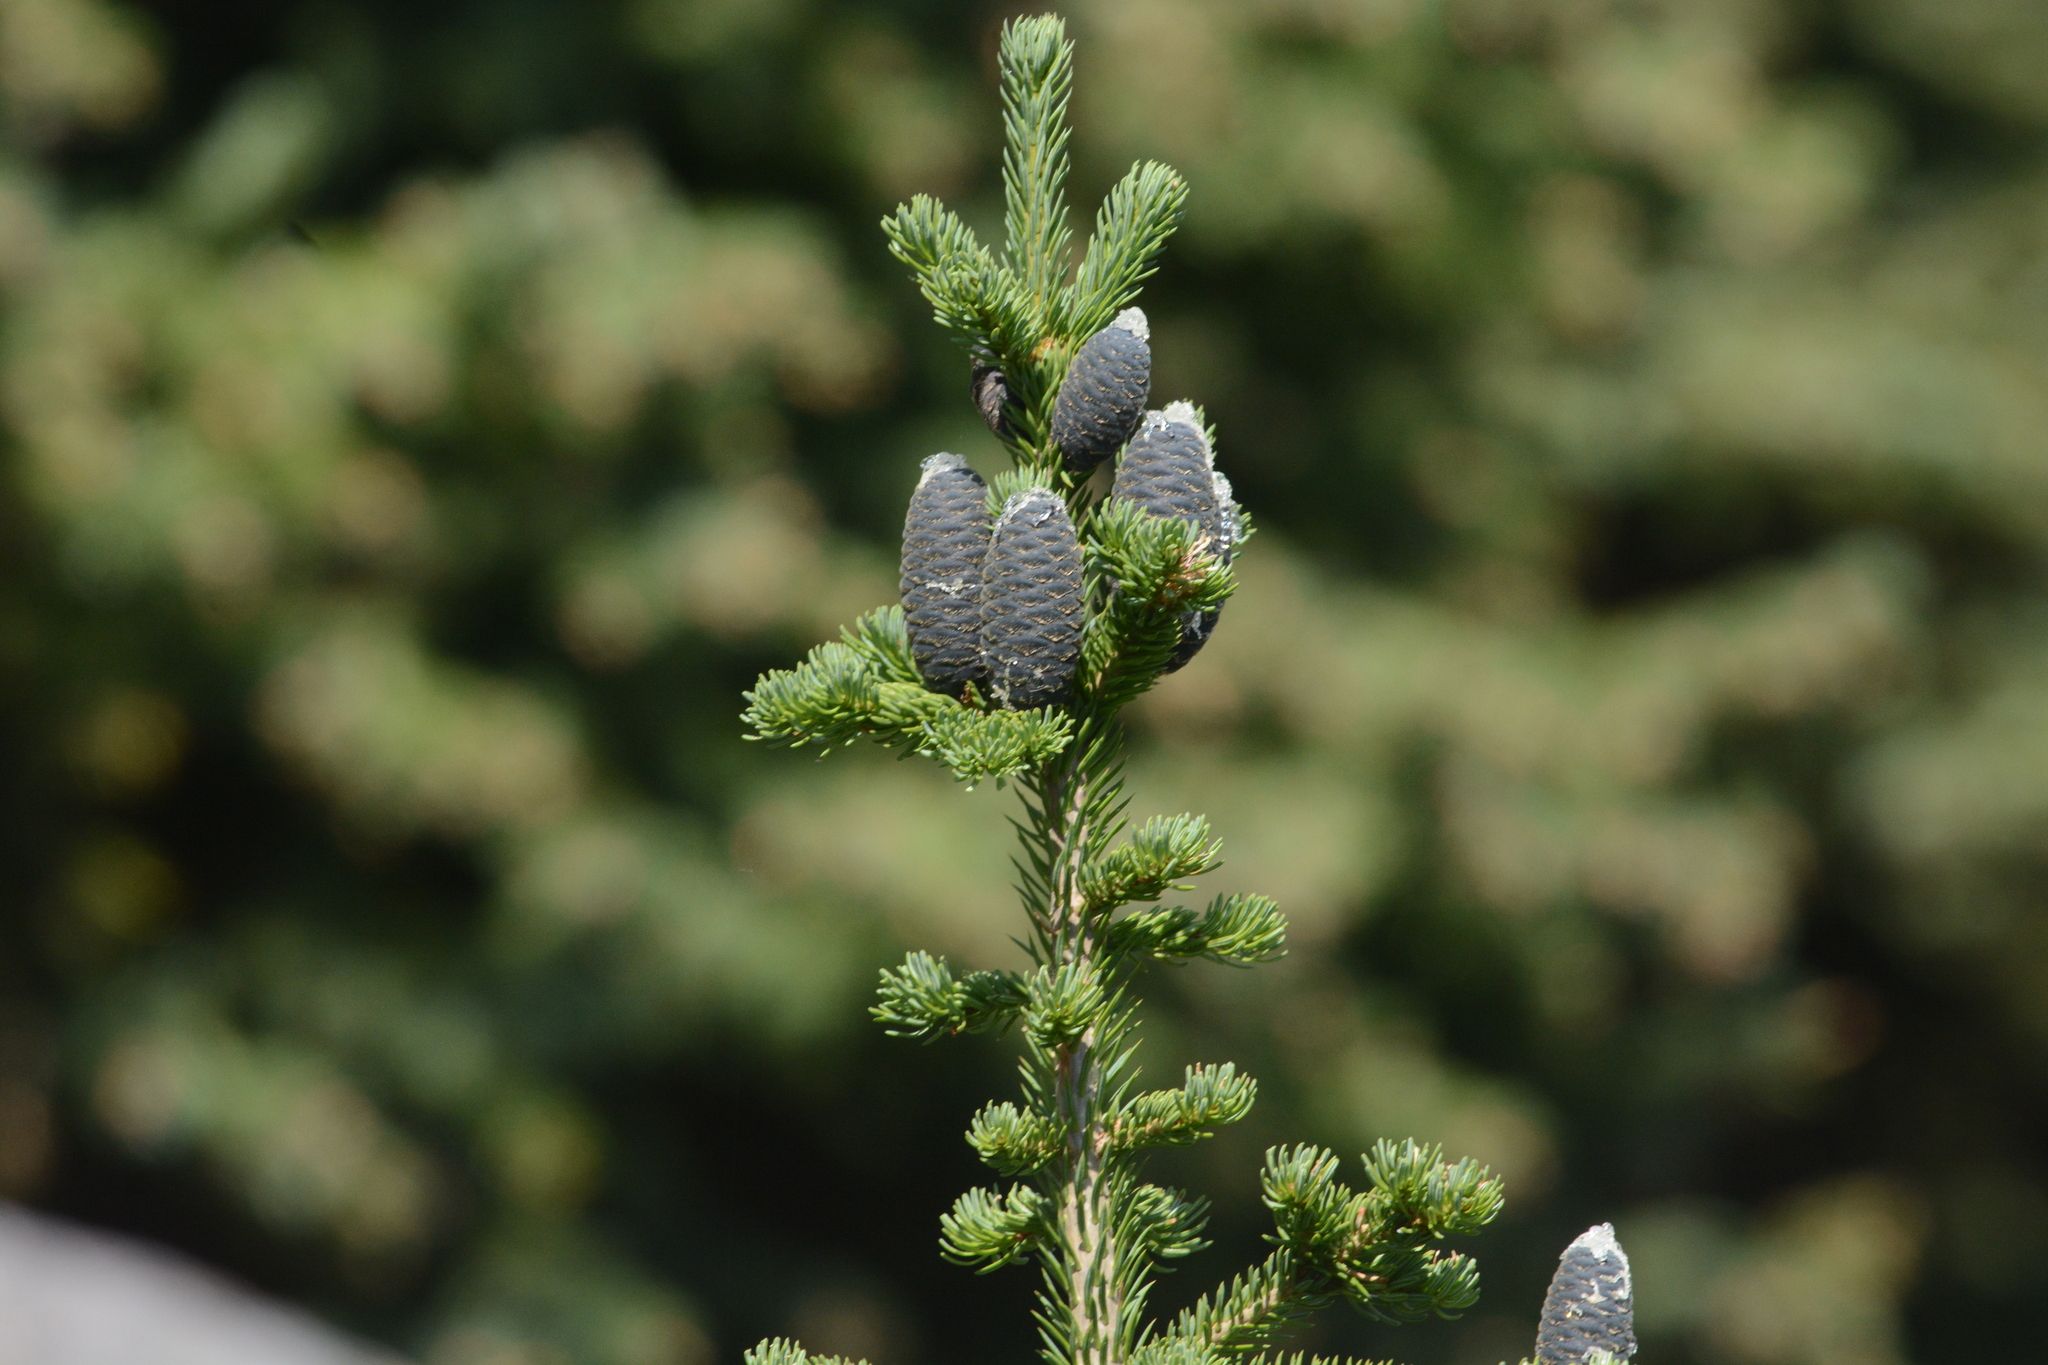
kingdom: Plantae
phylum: Tracheophyta
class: Pinopsida
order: Pinales
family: Pinaceae
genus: Abies
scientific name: Abies lasiocarpa
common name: Subalpine fir
